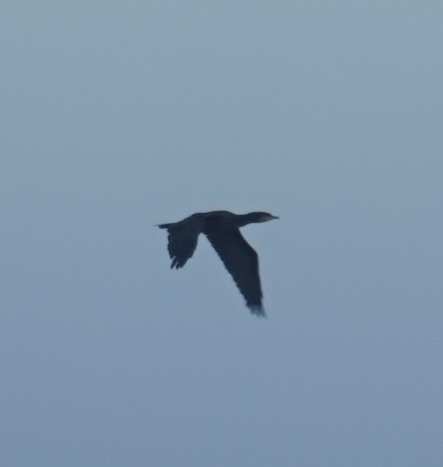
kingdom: Animalia
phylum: Chordata
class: Aves
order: Suliformes
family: Phalacrocoracidae
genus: Phalacrocorax
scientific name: Phalacrocorax carbo
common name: Great cormorant
